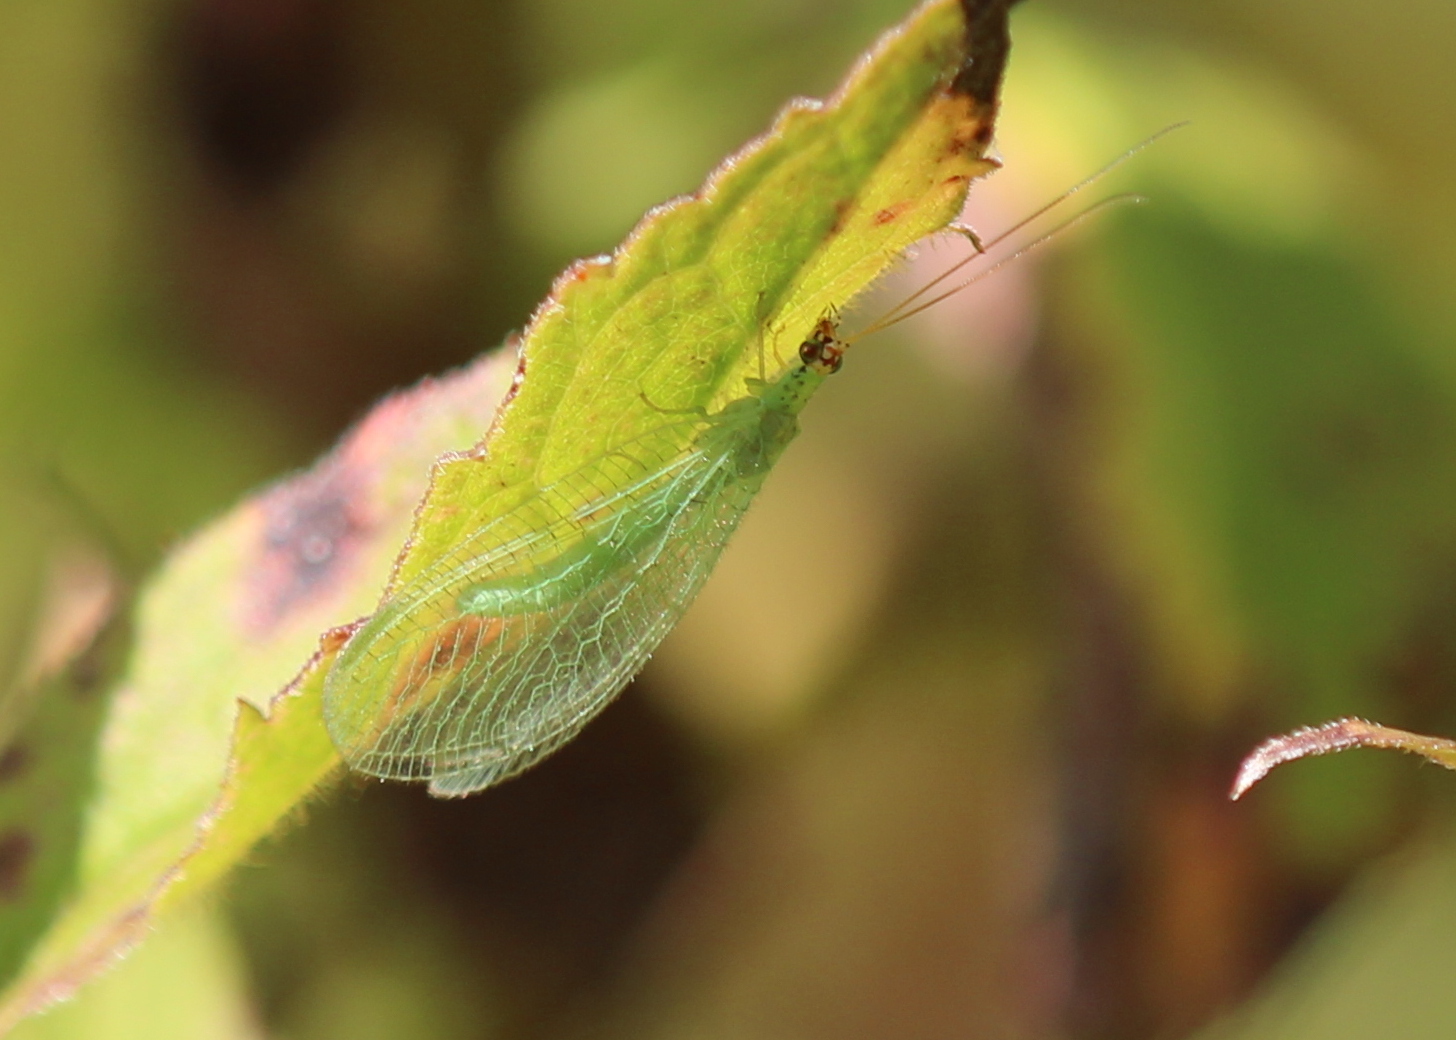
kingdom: Animalia
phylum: Arthropoda
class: Insecta
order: Neuroptera
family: Chrysopidae
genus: Chrysopa
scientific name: Chrysopa oculata
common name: Golden-eyed lacewing
